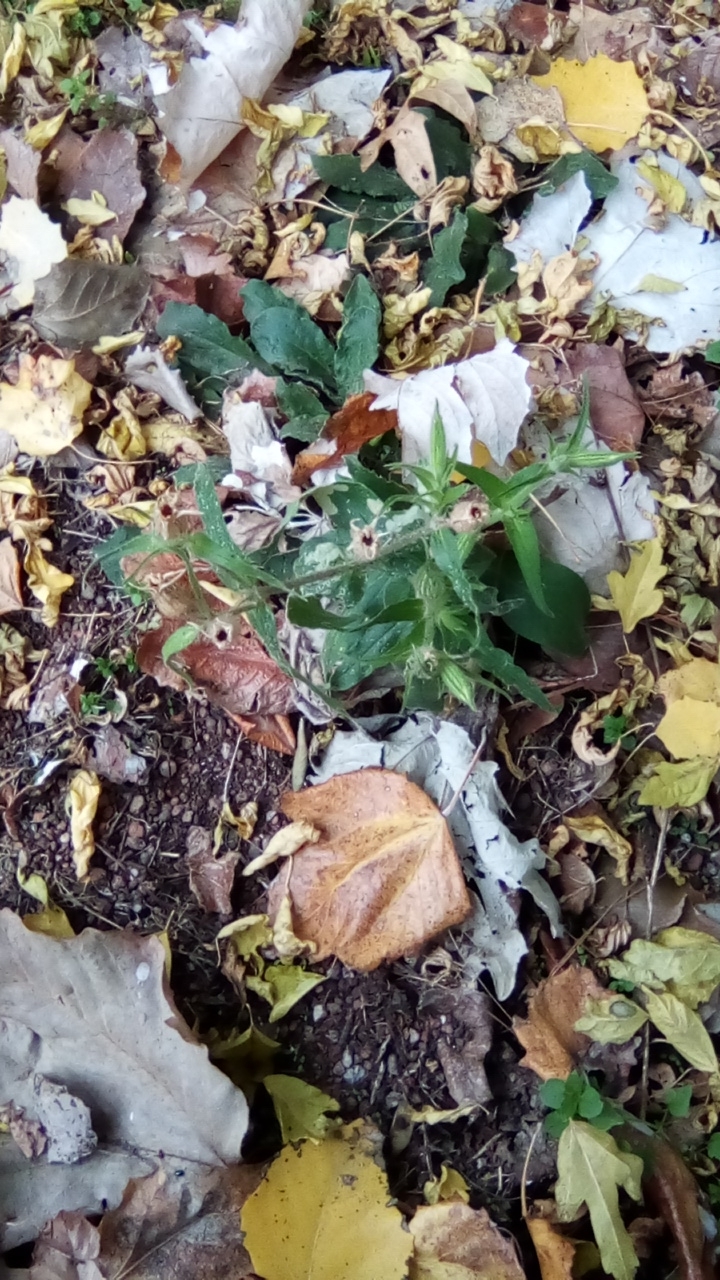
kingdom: Plantae
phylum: Tracheophyta
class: Magnoliopsida
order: Caryophyllales
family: Caryophyllaceae
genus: Silene
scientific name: Silene noctiflora
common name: Night-flowering catchfly
